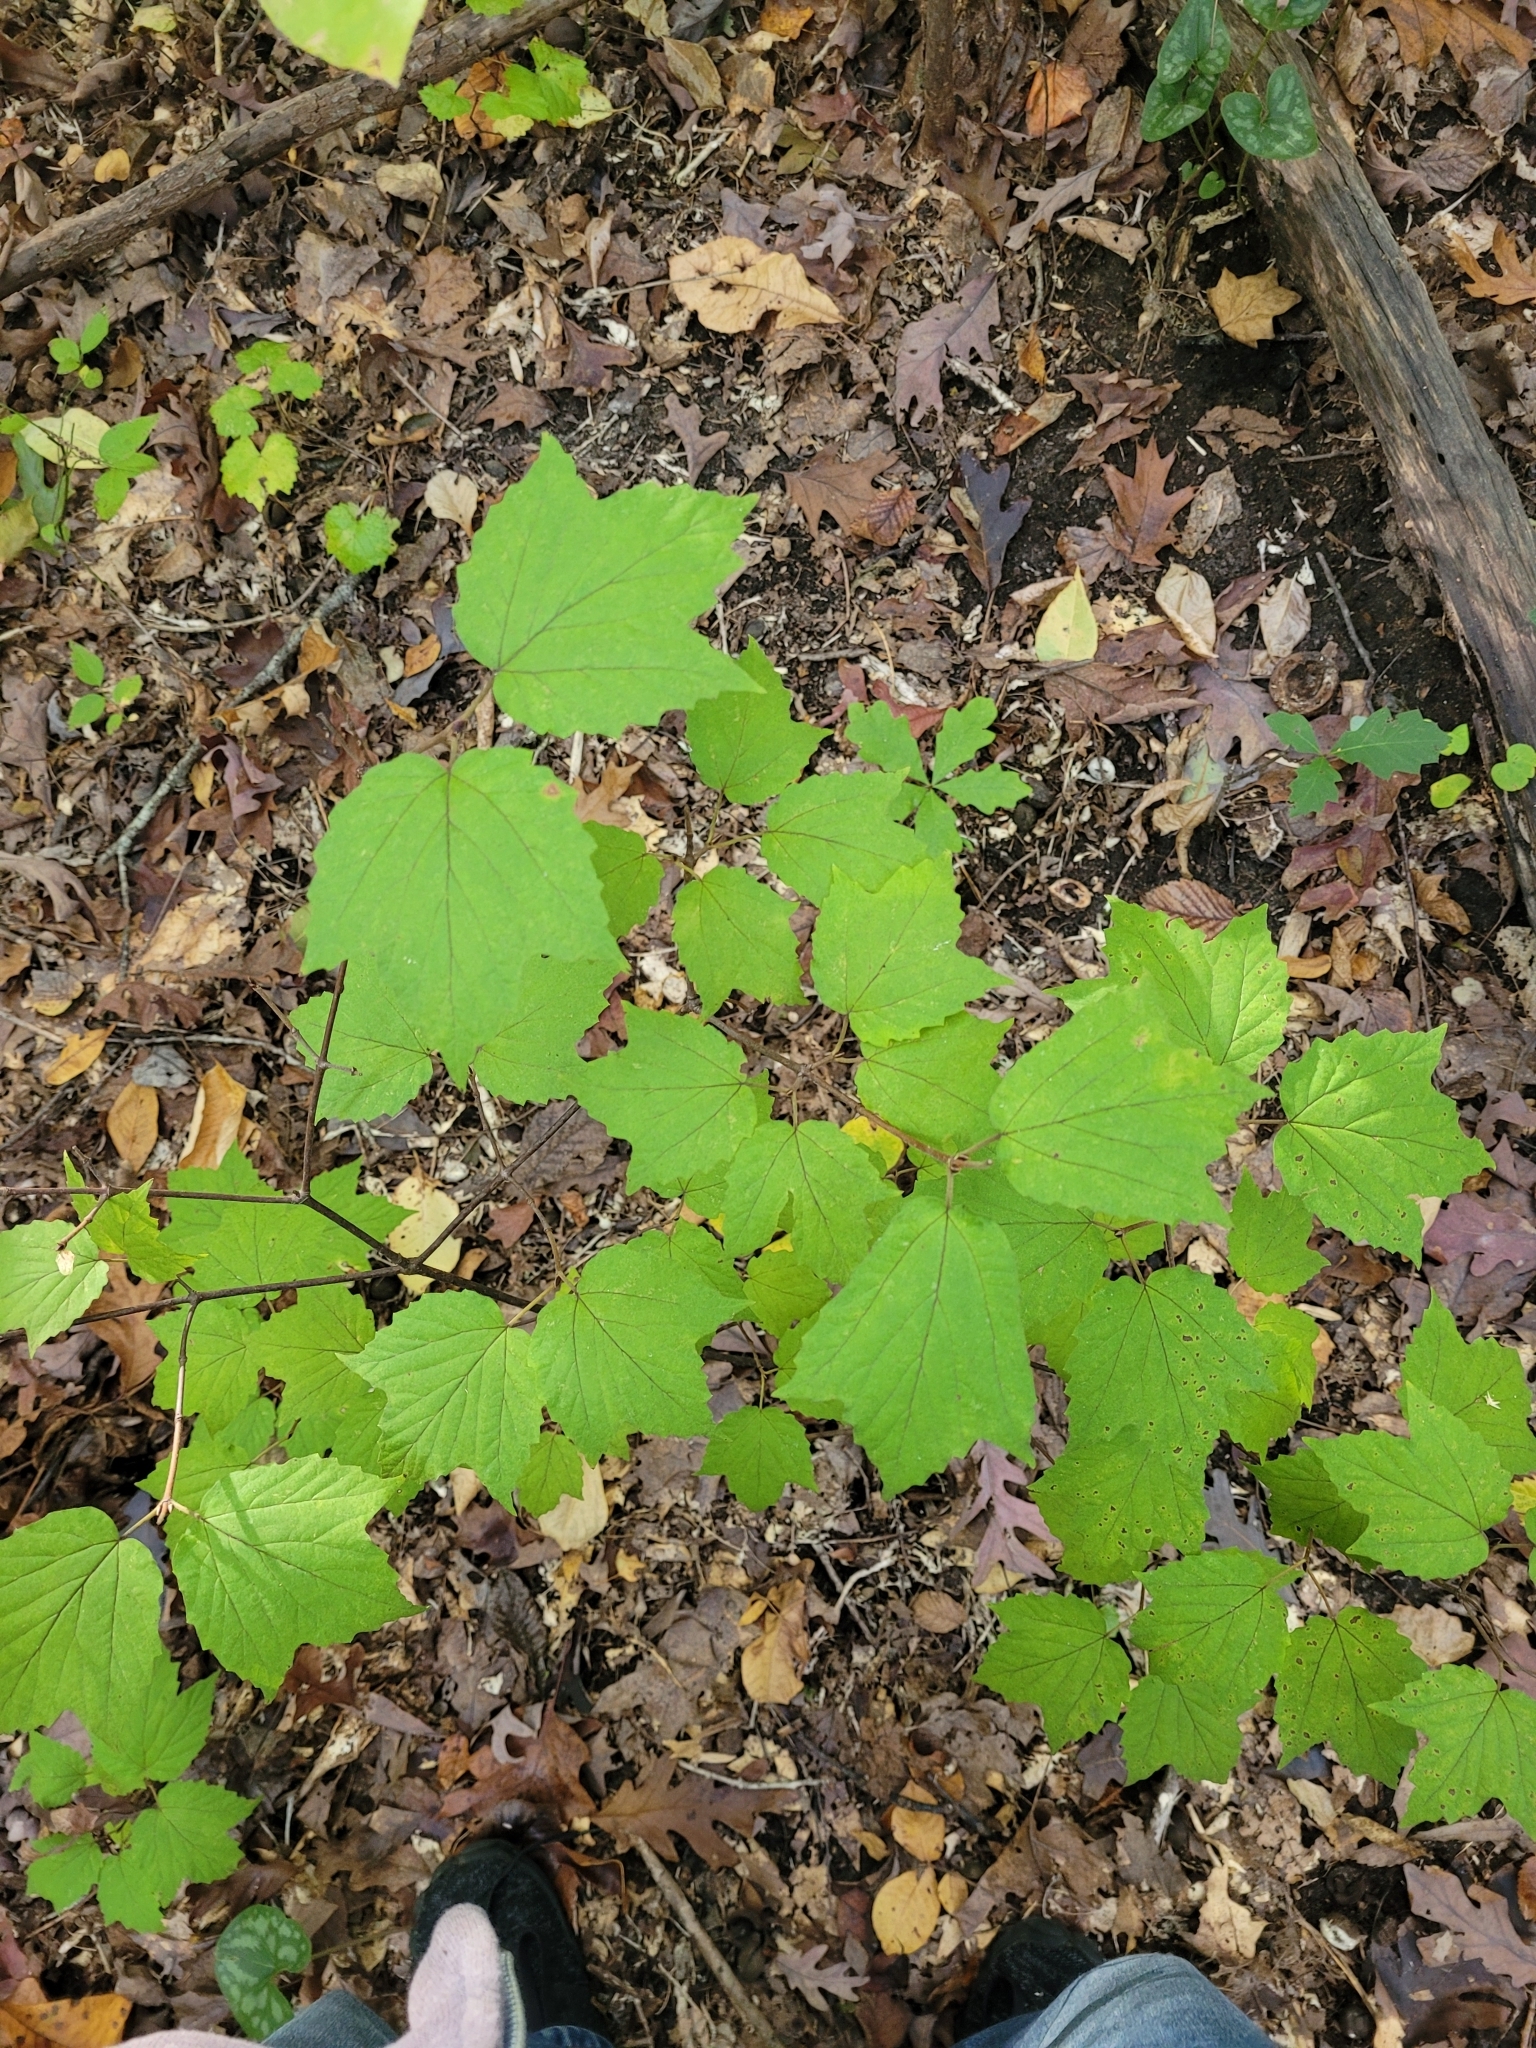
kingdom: Plantae
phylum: Tracheophyta
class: Magnoliopsida
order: Dipsacales
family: Viburnaceae
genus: Viburnum
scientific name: Viburnum acerifolium
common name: Dockmackie
